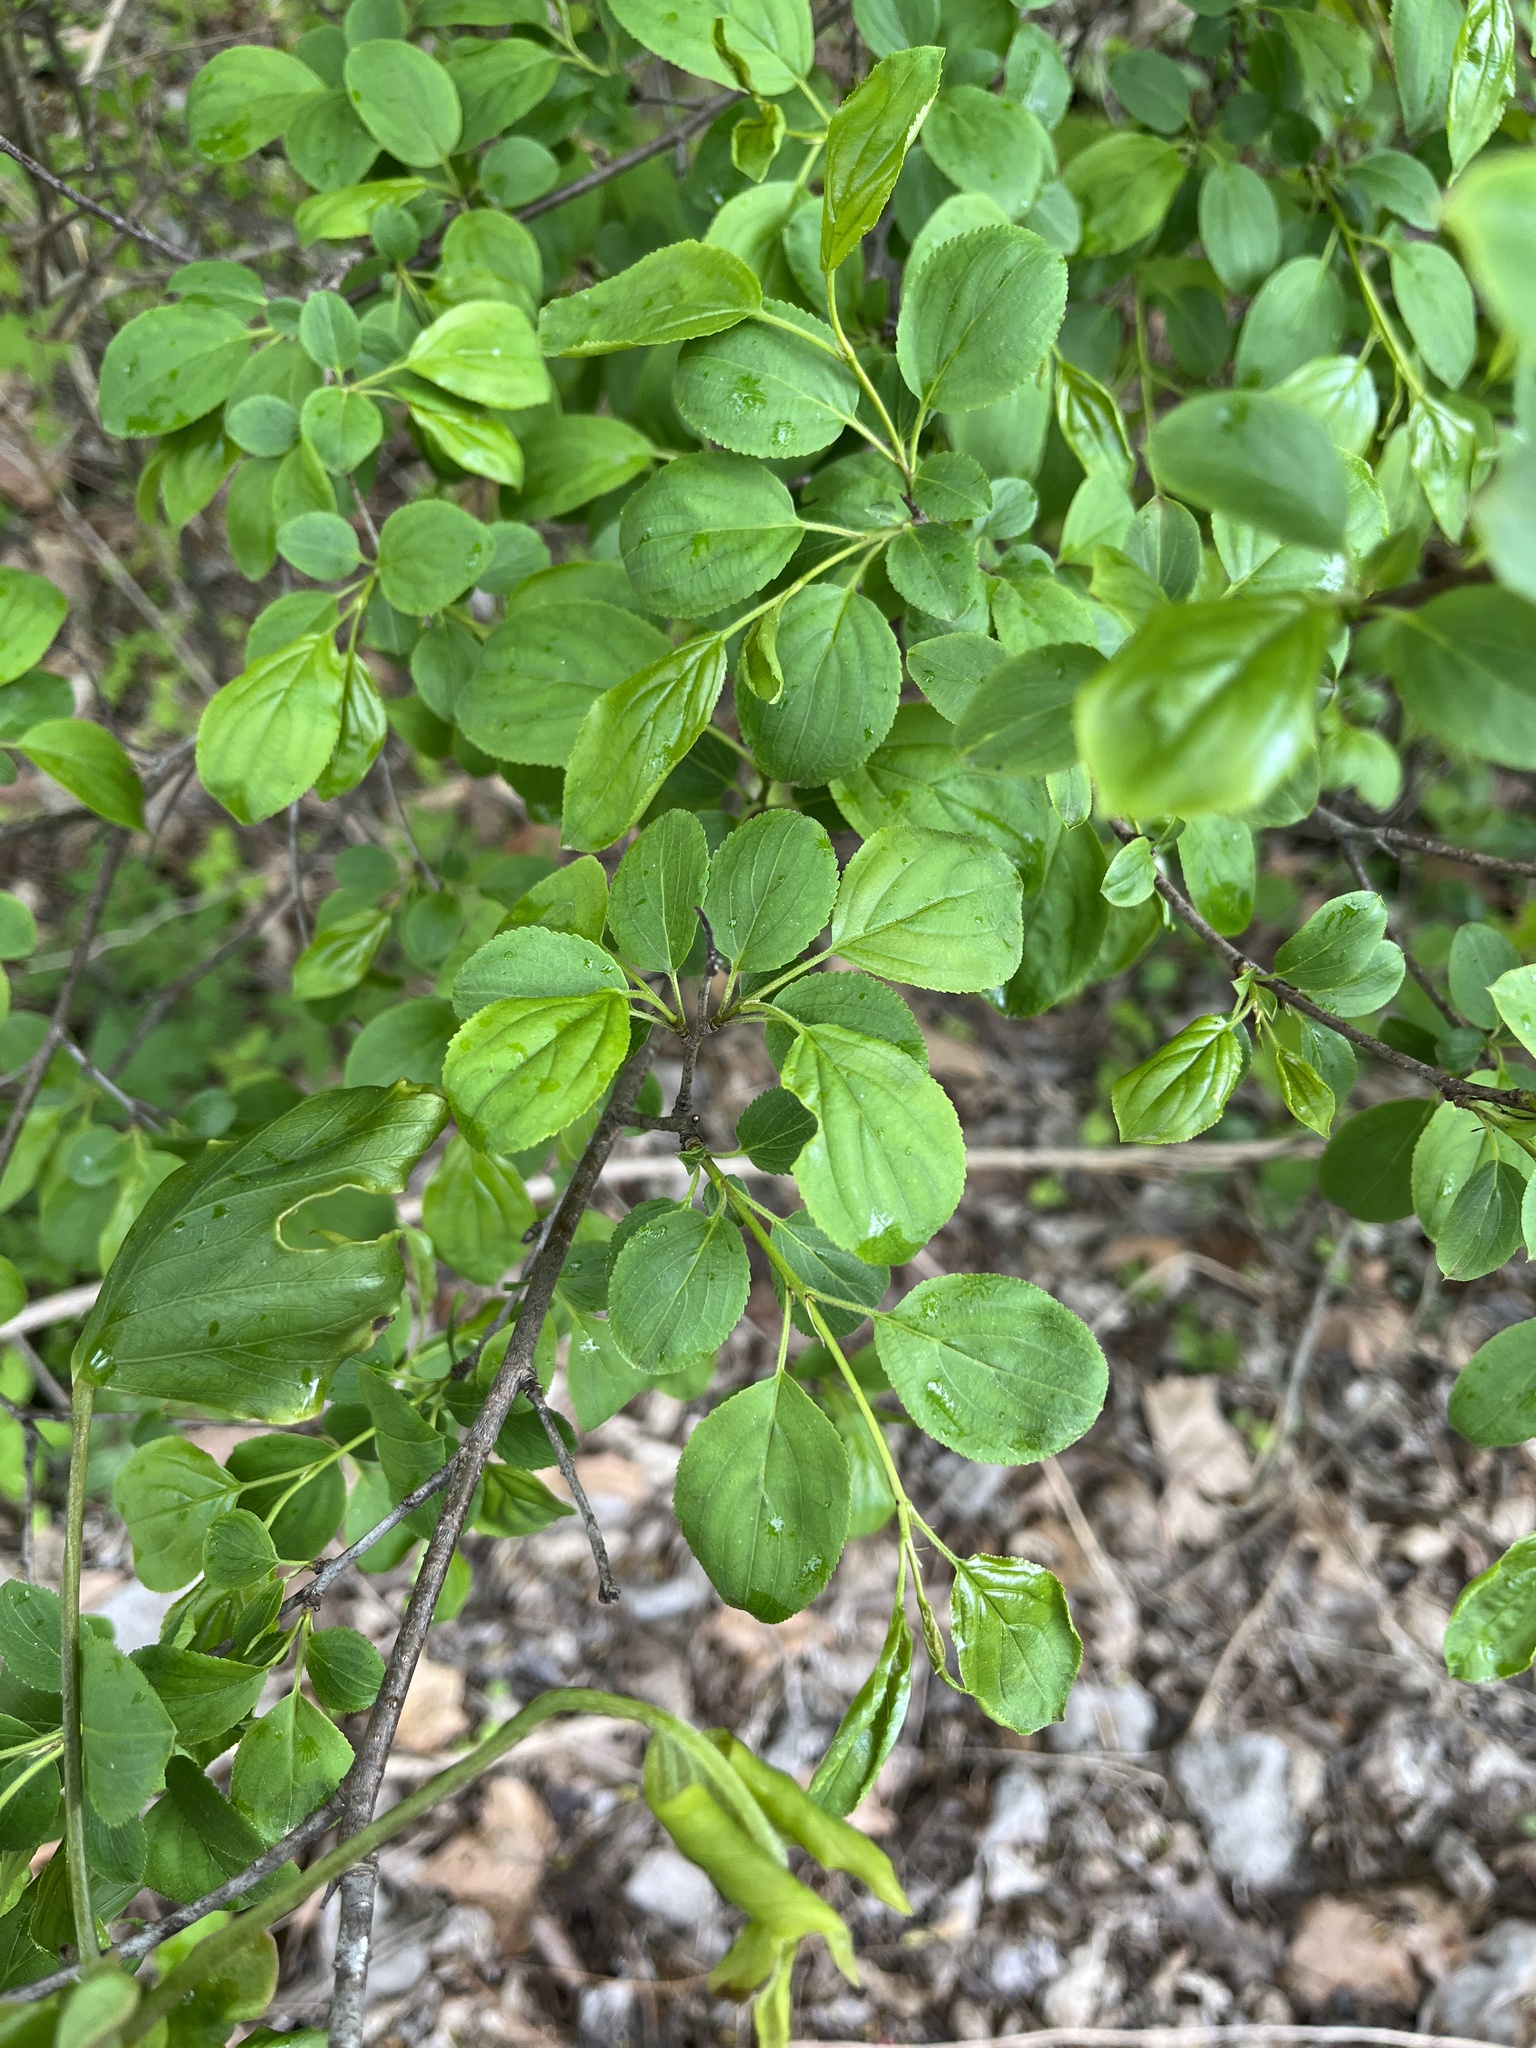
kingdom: Plantae
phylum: Tracheophyta
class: Magnoliopsida
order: Rosales
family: Rhamnaceae
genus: Rhamnus
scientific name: Rhamnus cathartica
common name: Common buckthorn
